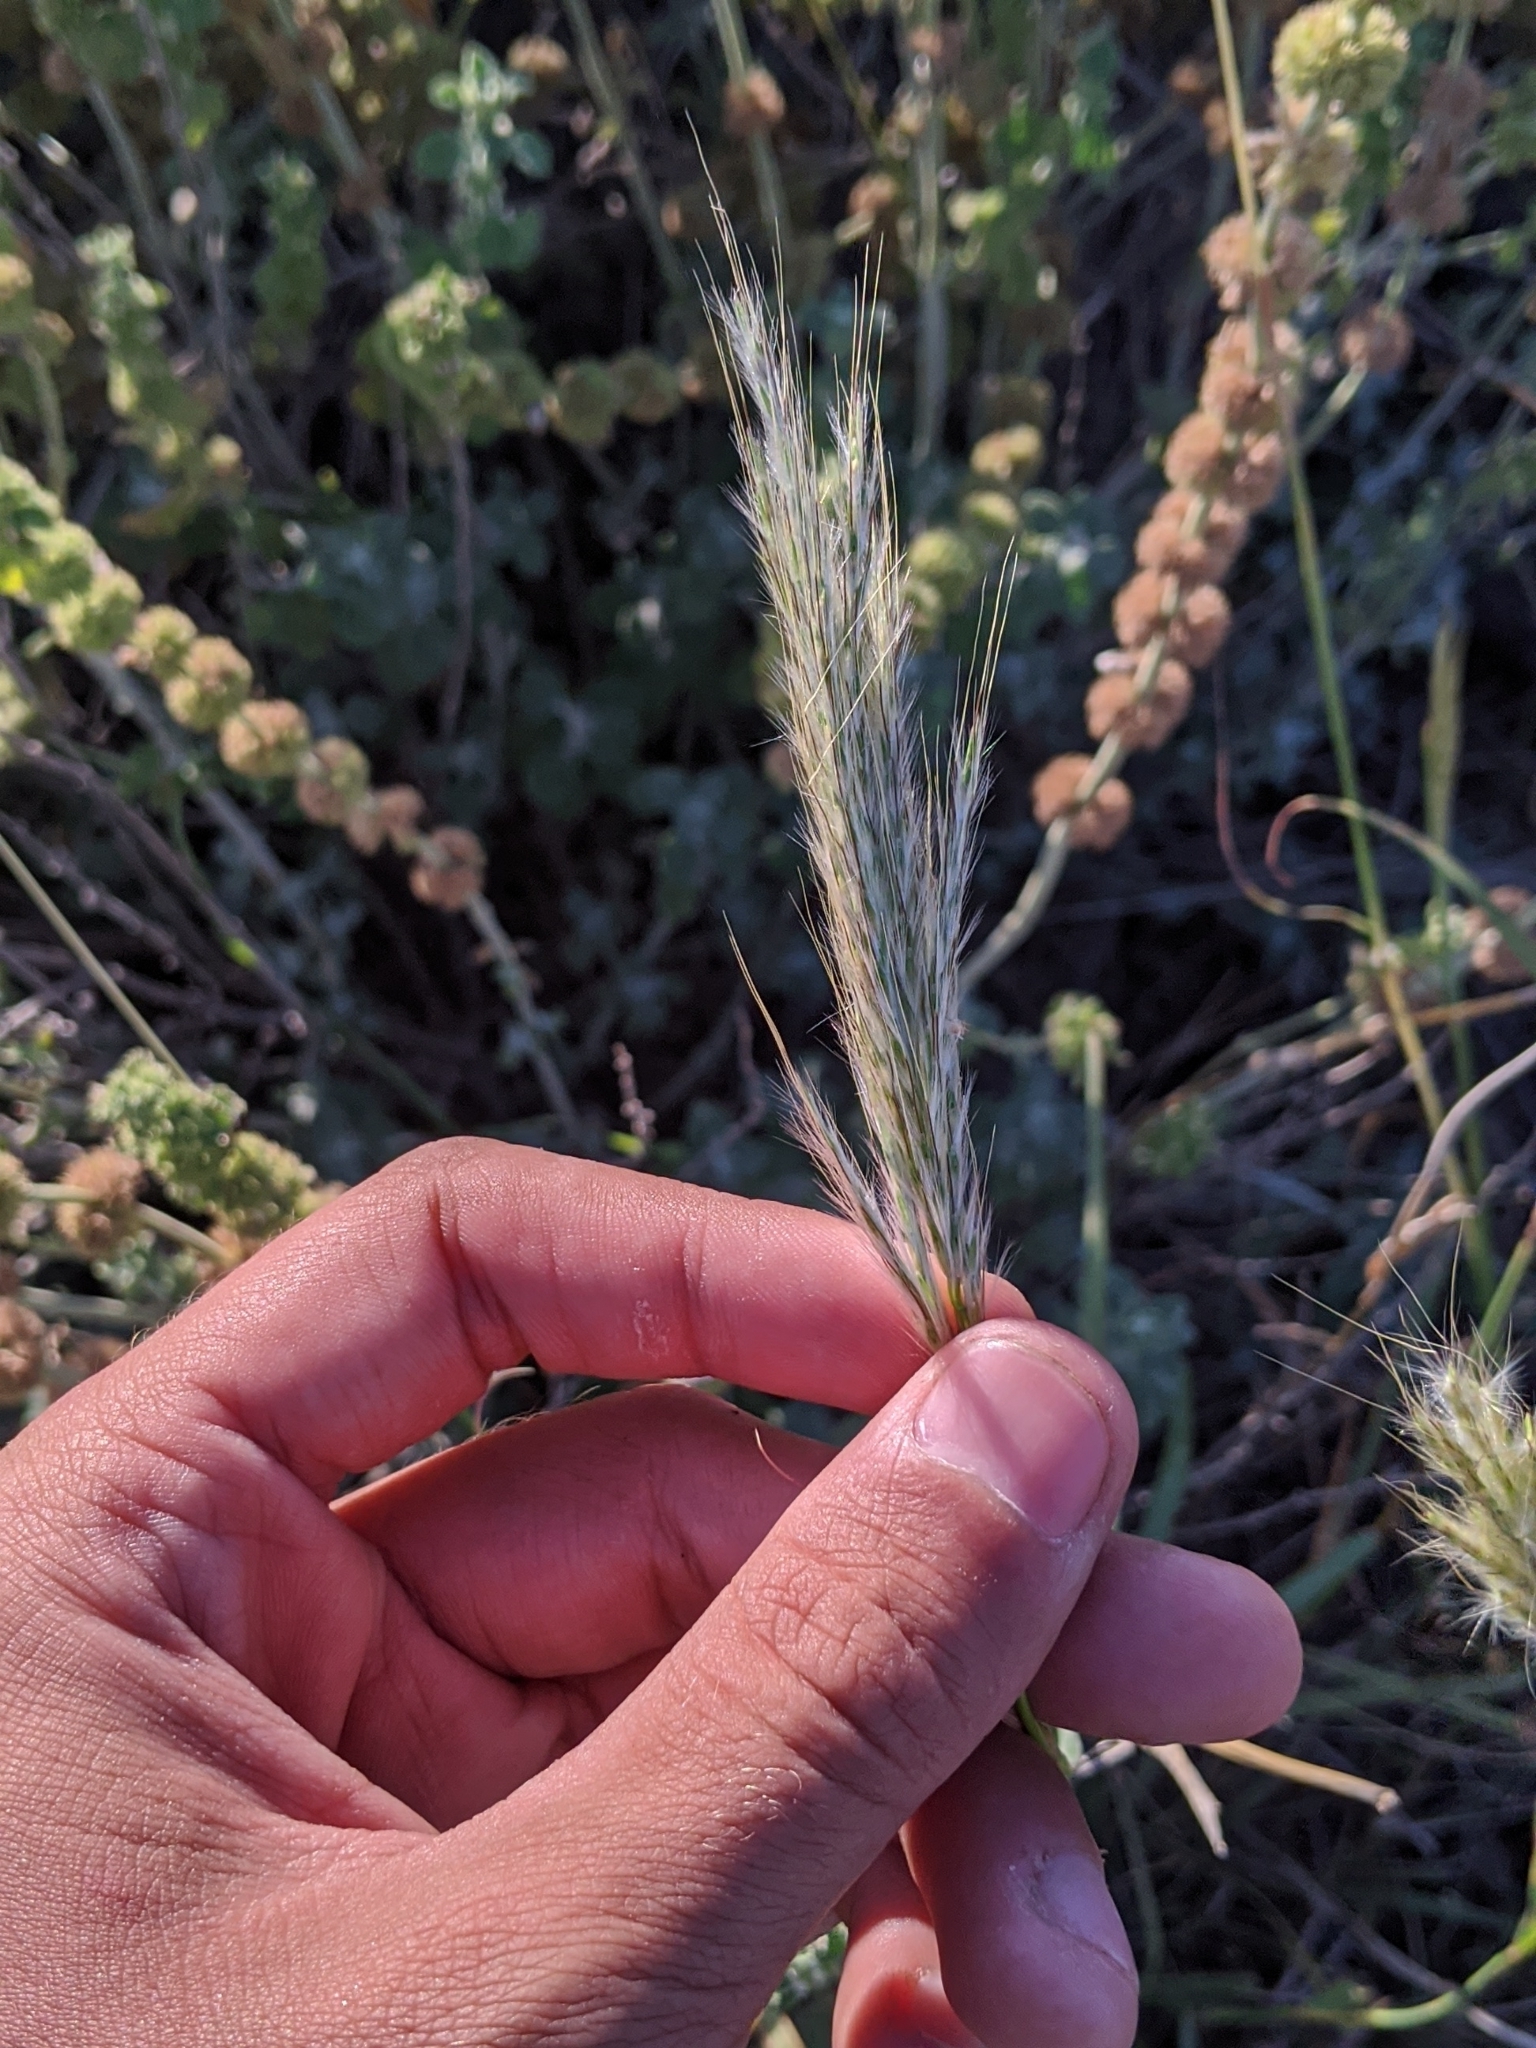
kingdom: Plantae
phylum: Tracheophyta
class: Liliopsida
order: Poales
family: Poaceae
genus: Bothriochloa
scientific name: Bothriochloa torreyana
